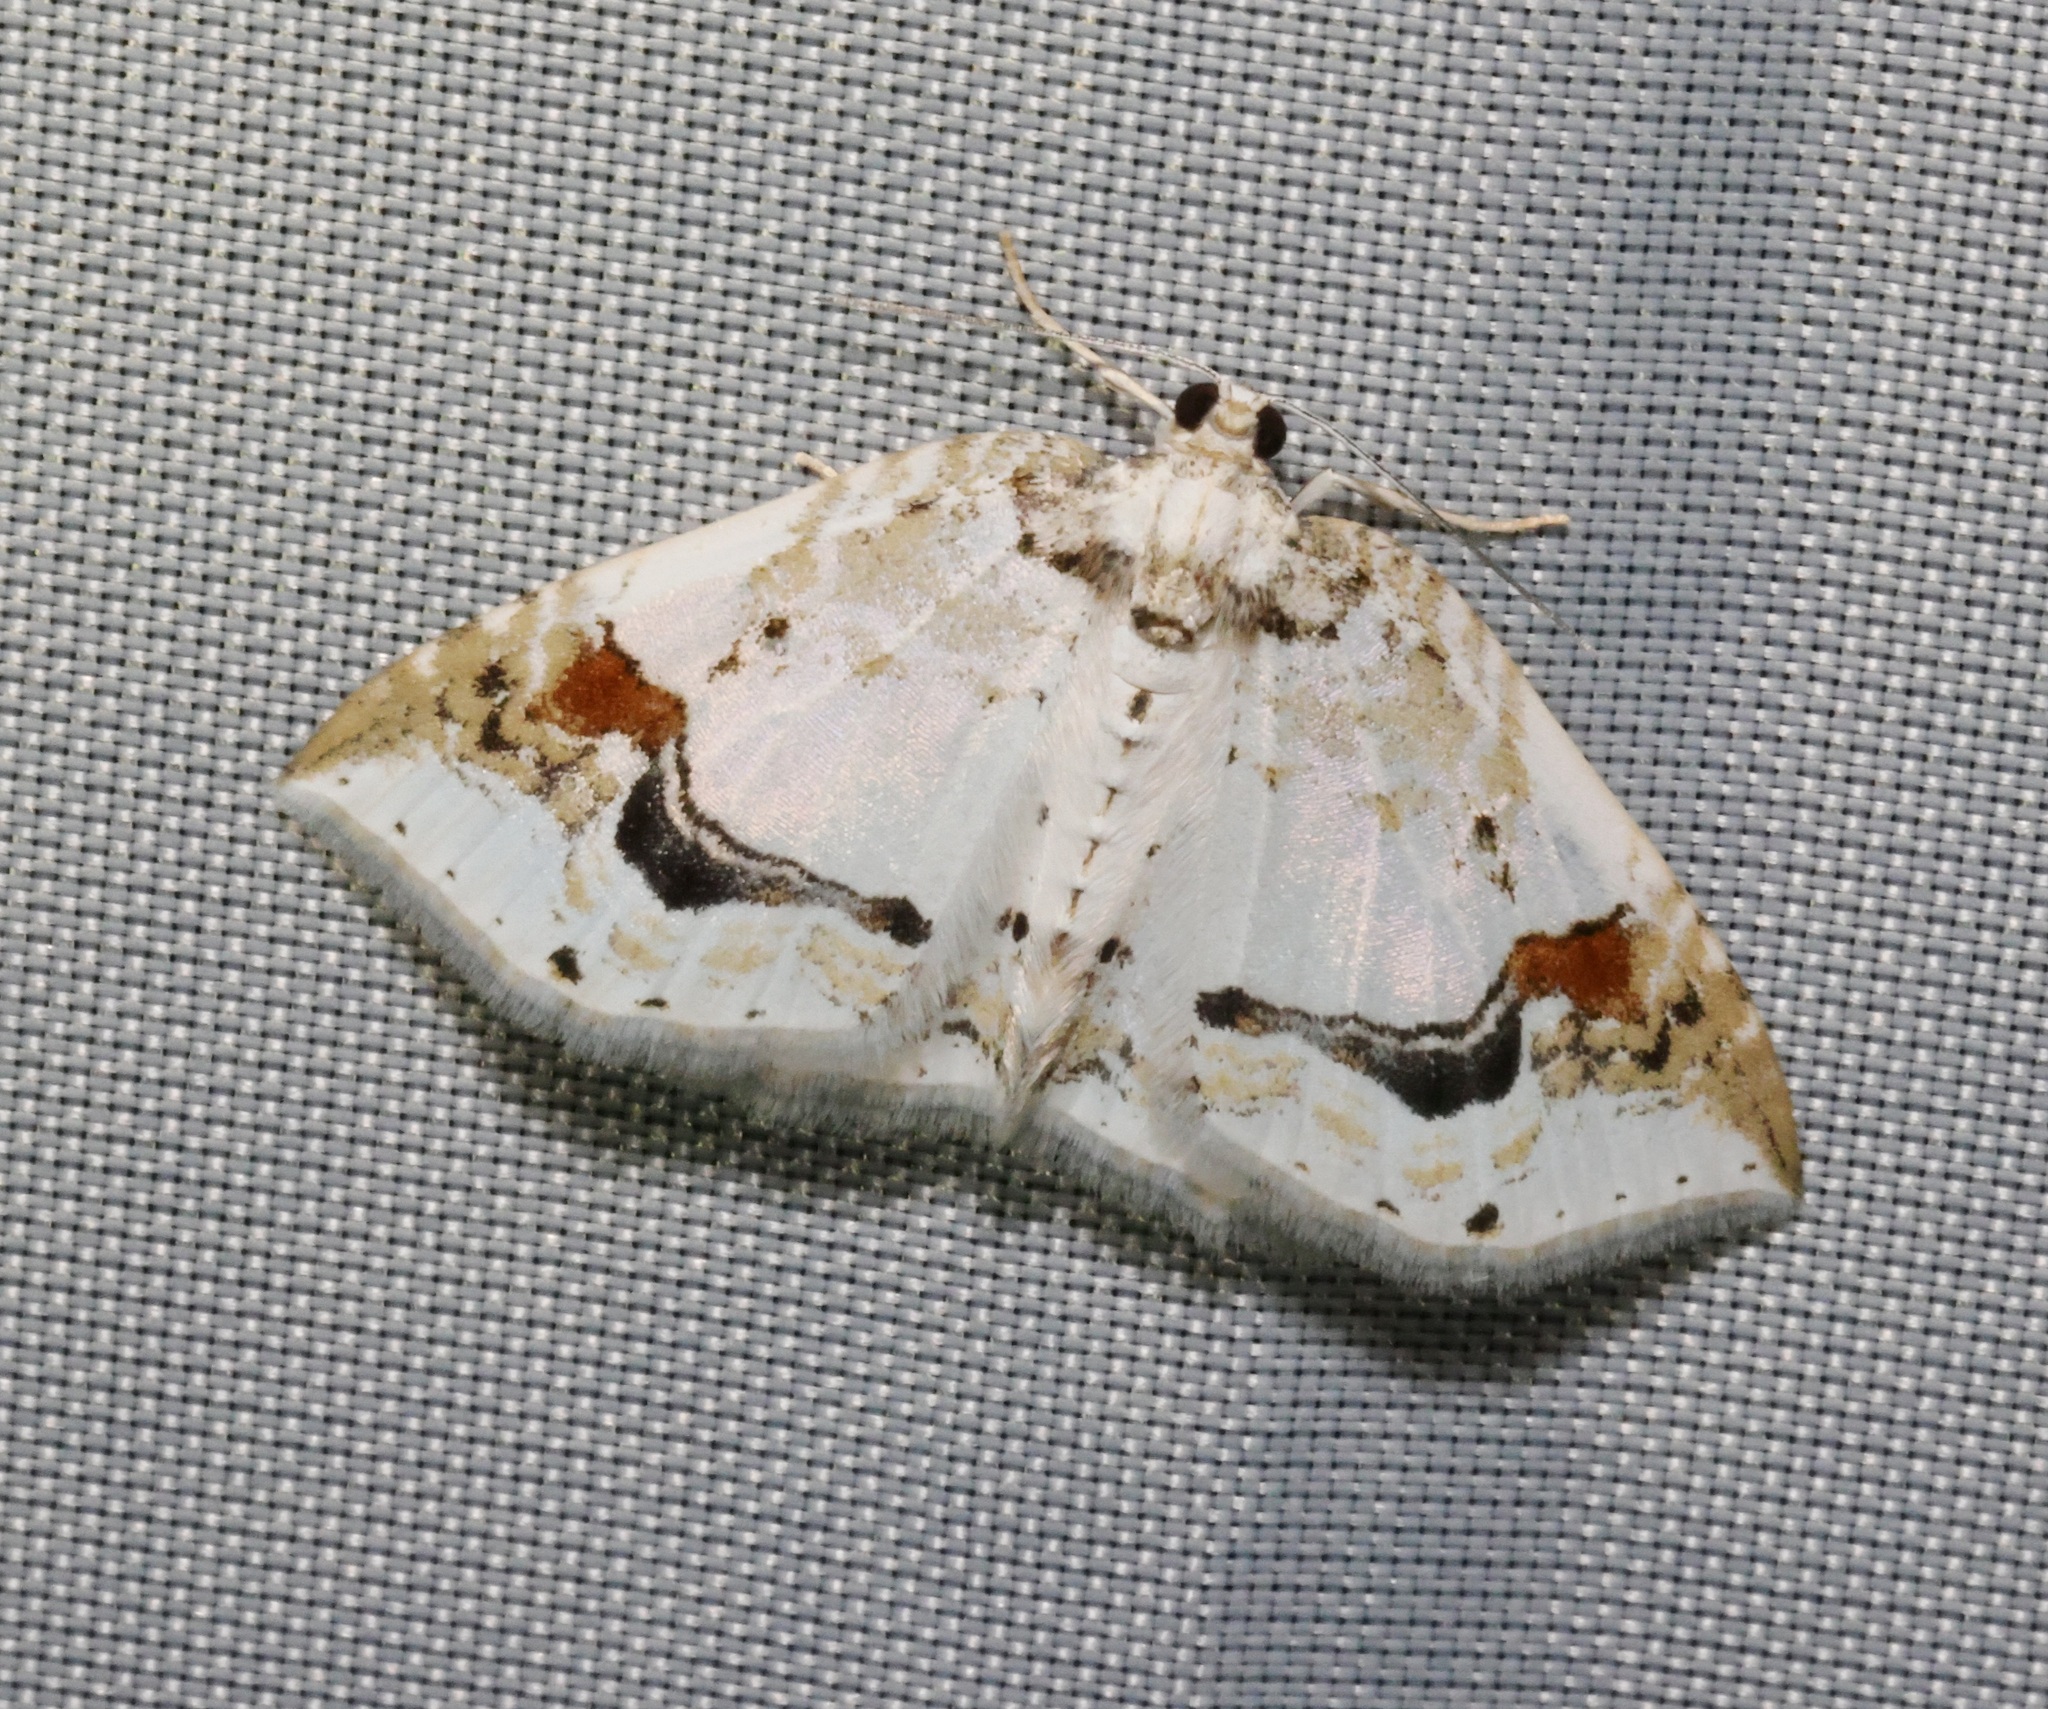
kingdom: Animalia
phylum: Arthropoda
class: Insecta
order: Lepidoptera
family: Geometridae
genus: Asthena
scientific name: Asthena undulata
